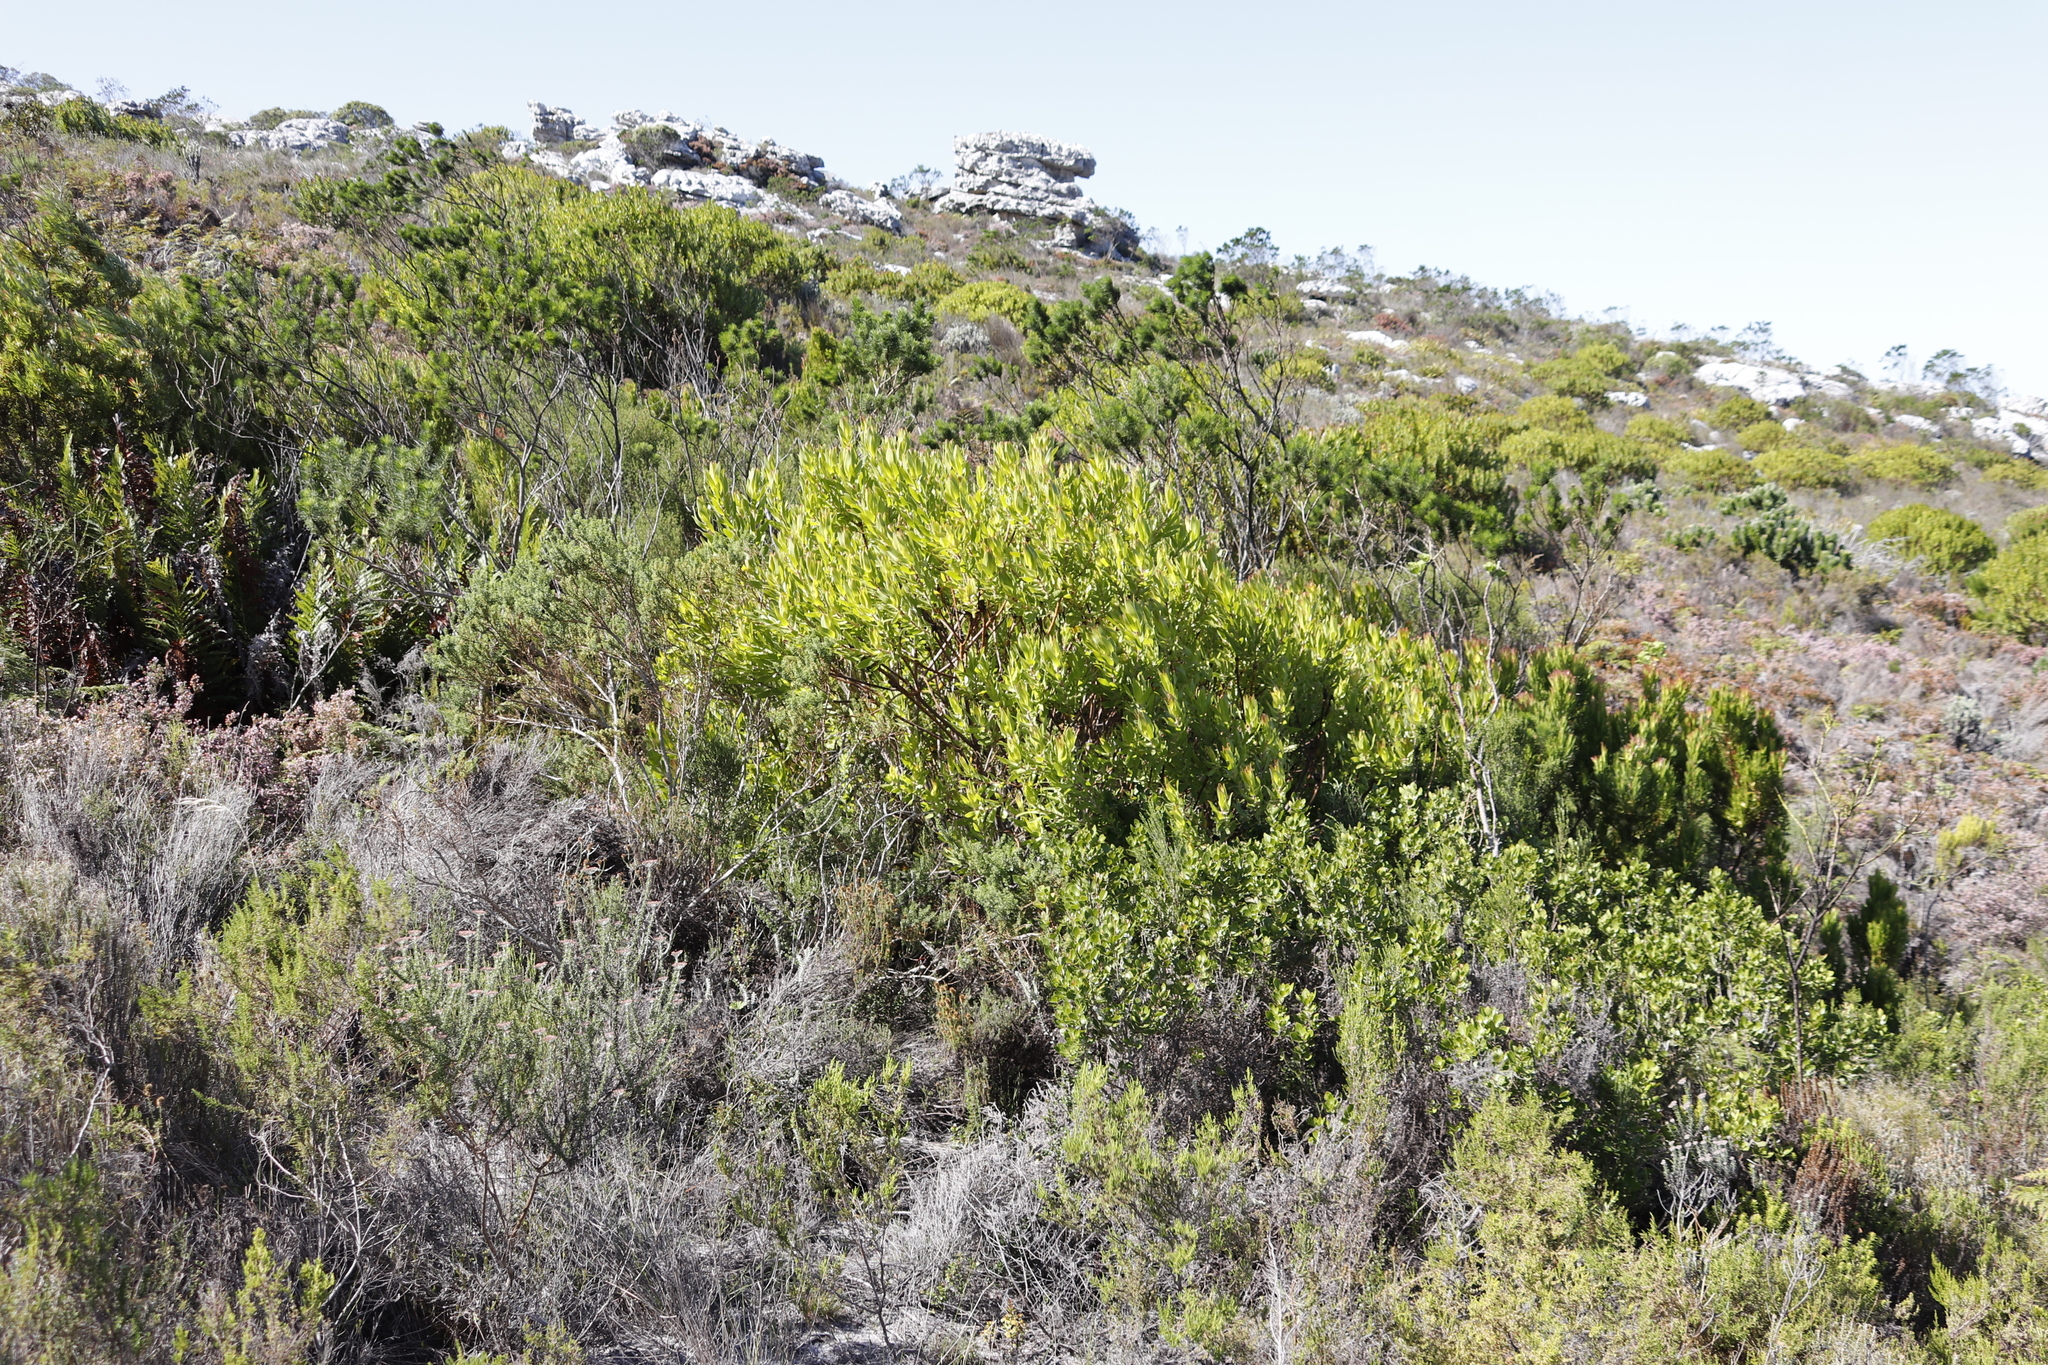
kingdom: Plantae
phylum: Tracheophyta
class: Magnoliopsida
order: Proteales
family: Proteaceae
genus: Leucadendron
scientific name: Leucadendron laureolum
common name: Golden sunshinebush
